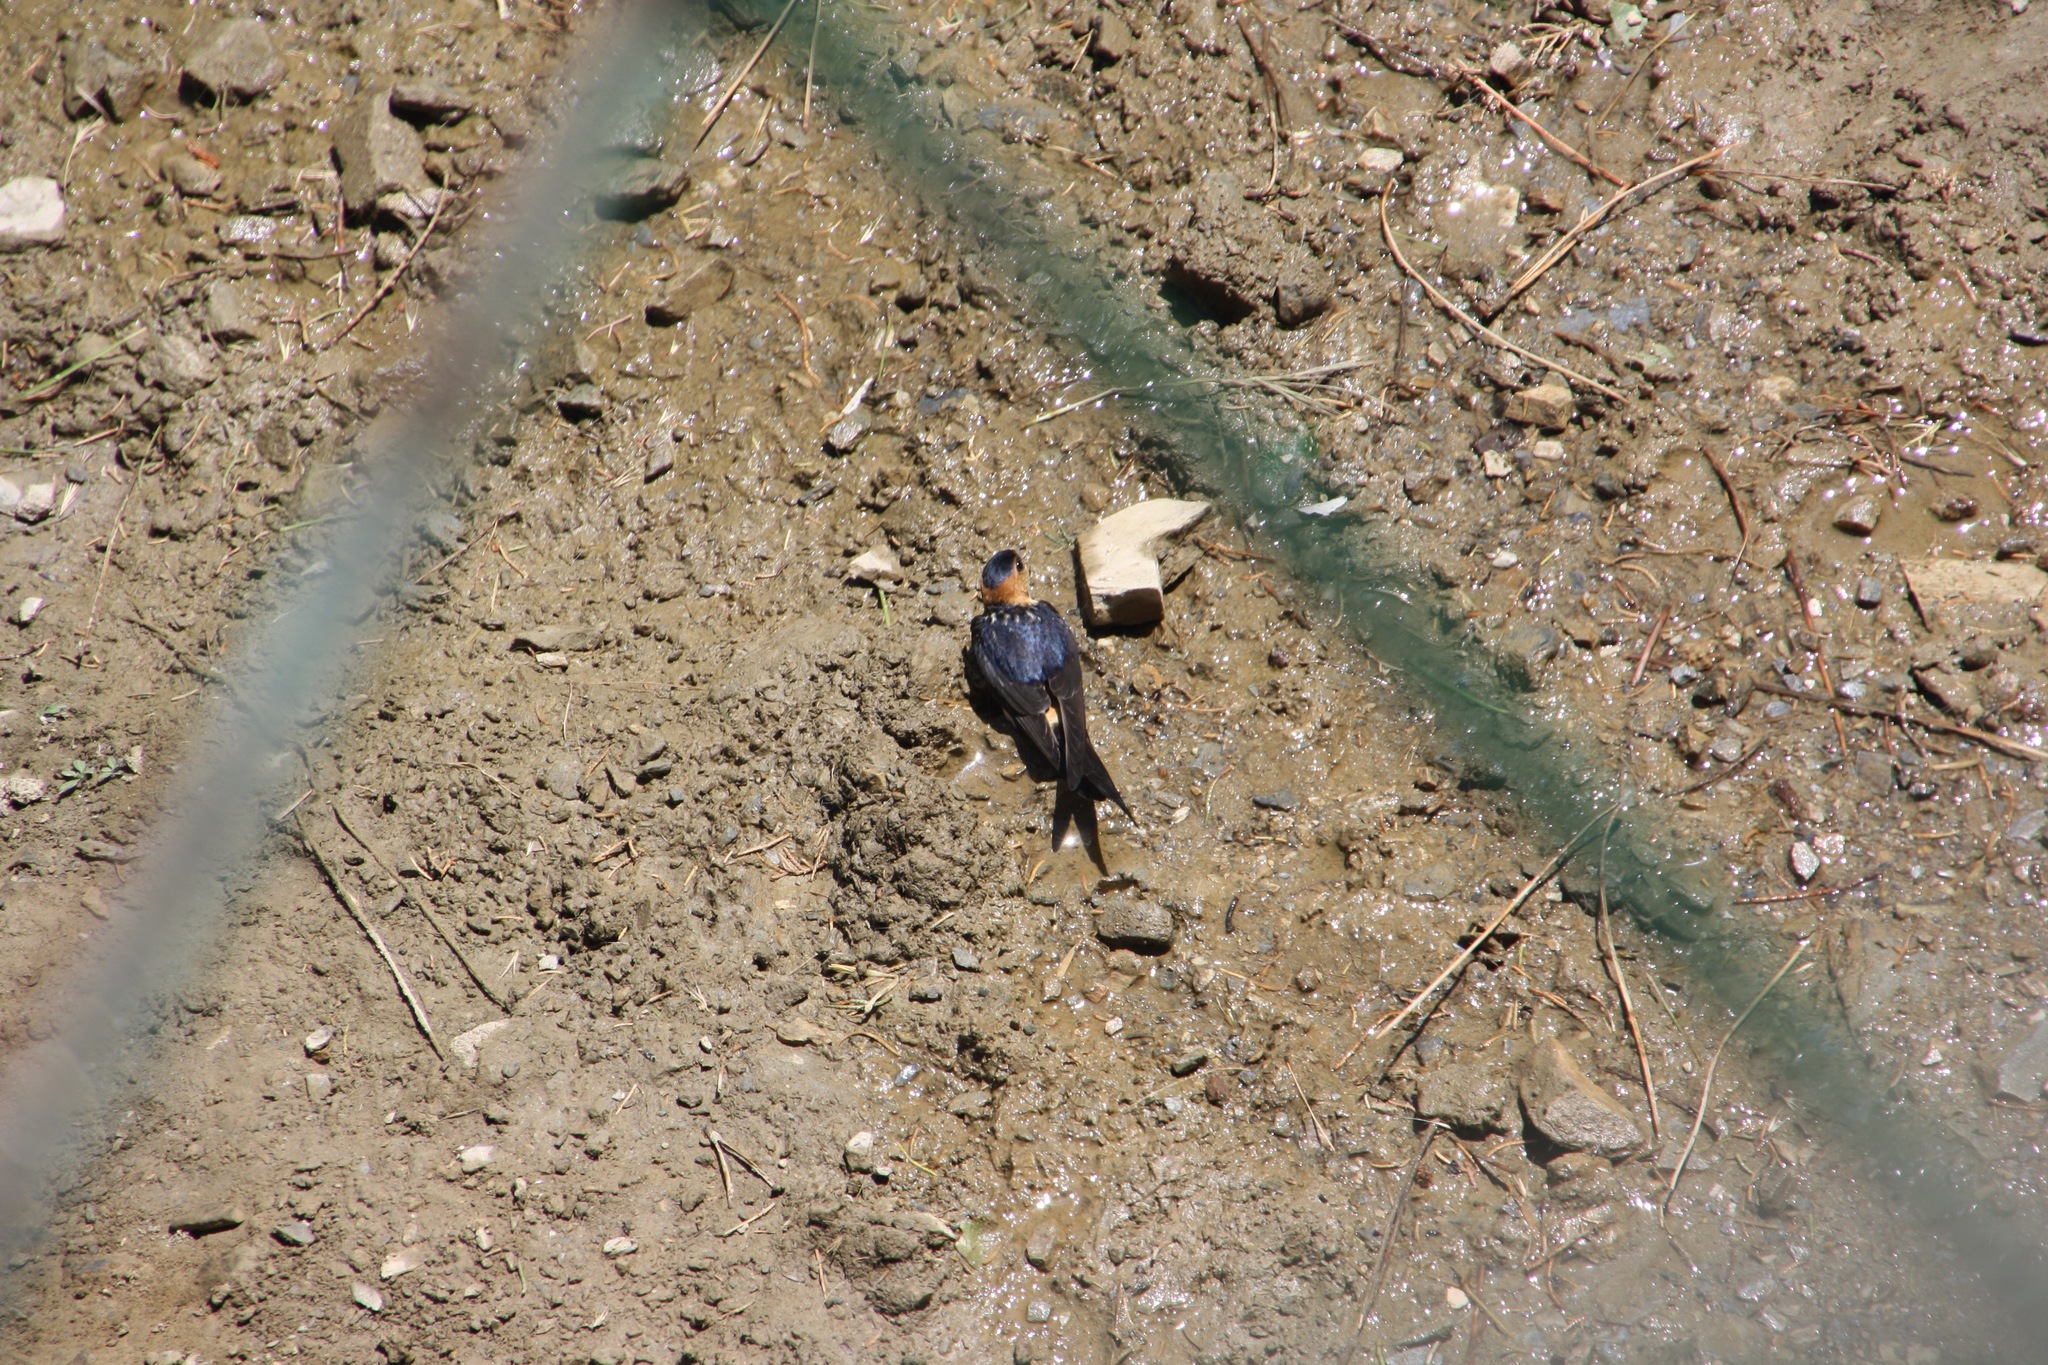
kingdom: Animalia
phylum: Chordata
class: Aves
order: Passeriformes
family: Hirundinidae
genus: Cecropis
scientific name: Cecropis daurica
